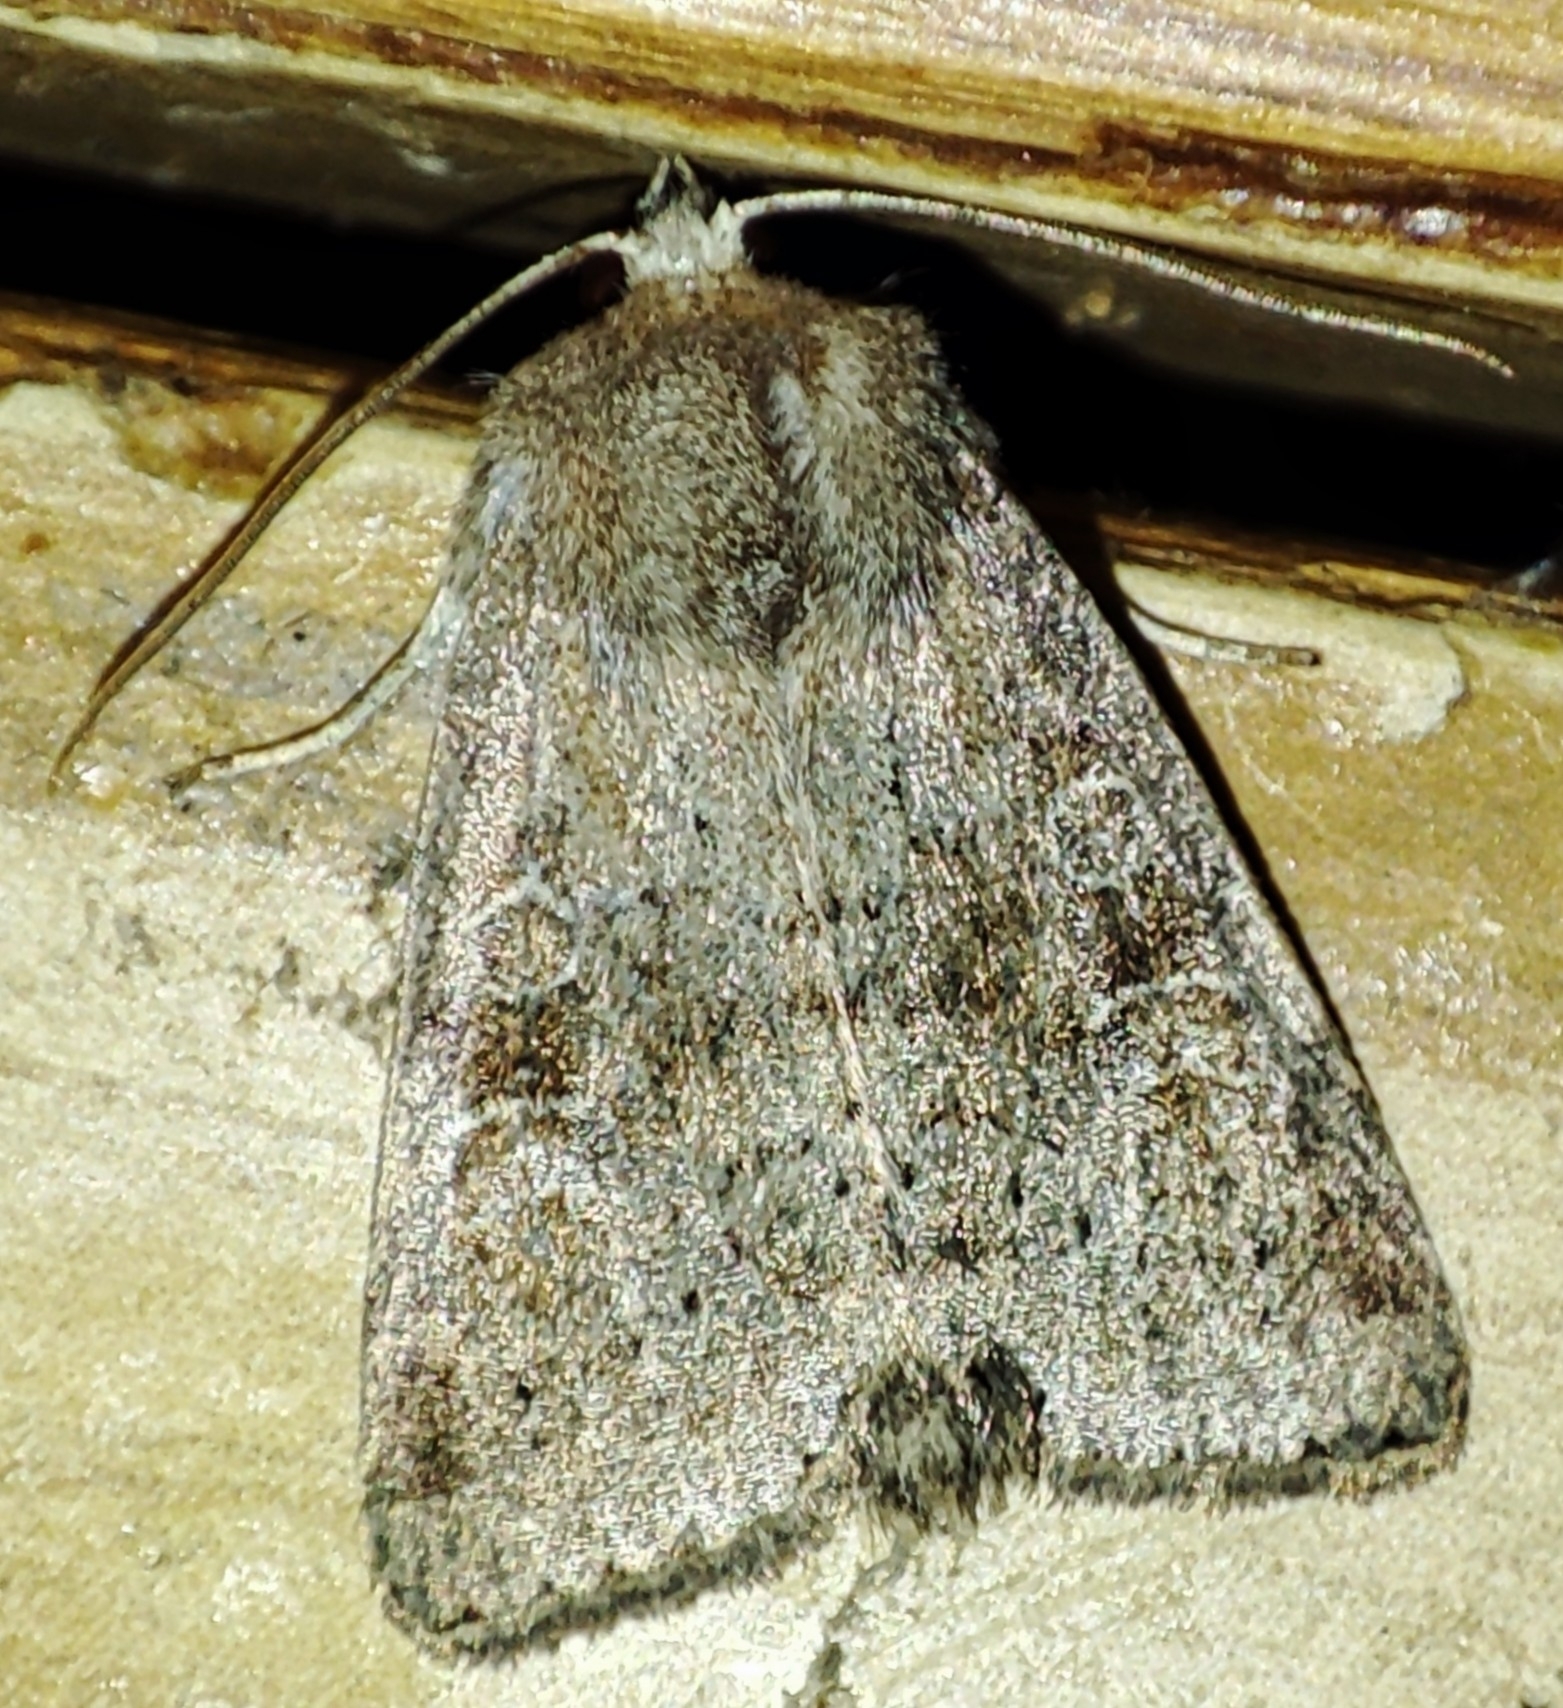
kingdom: Animalia
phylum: Arthropoda
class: Insecta
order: Lepidoptera
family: Noctuidae
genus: Parastichtis
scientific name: Parastichtis suspecta
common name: Suspected
